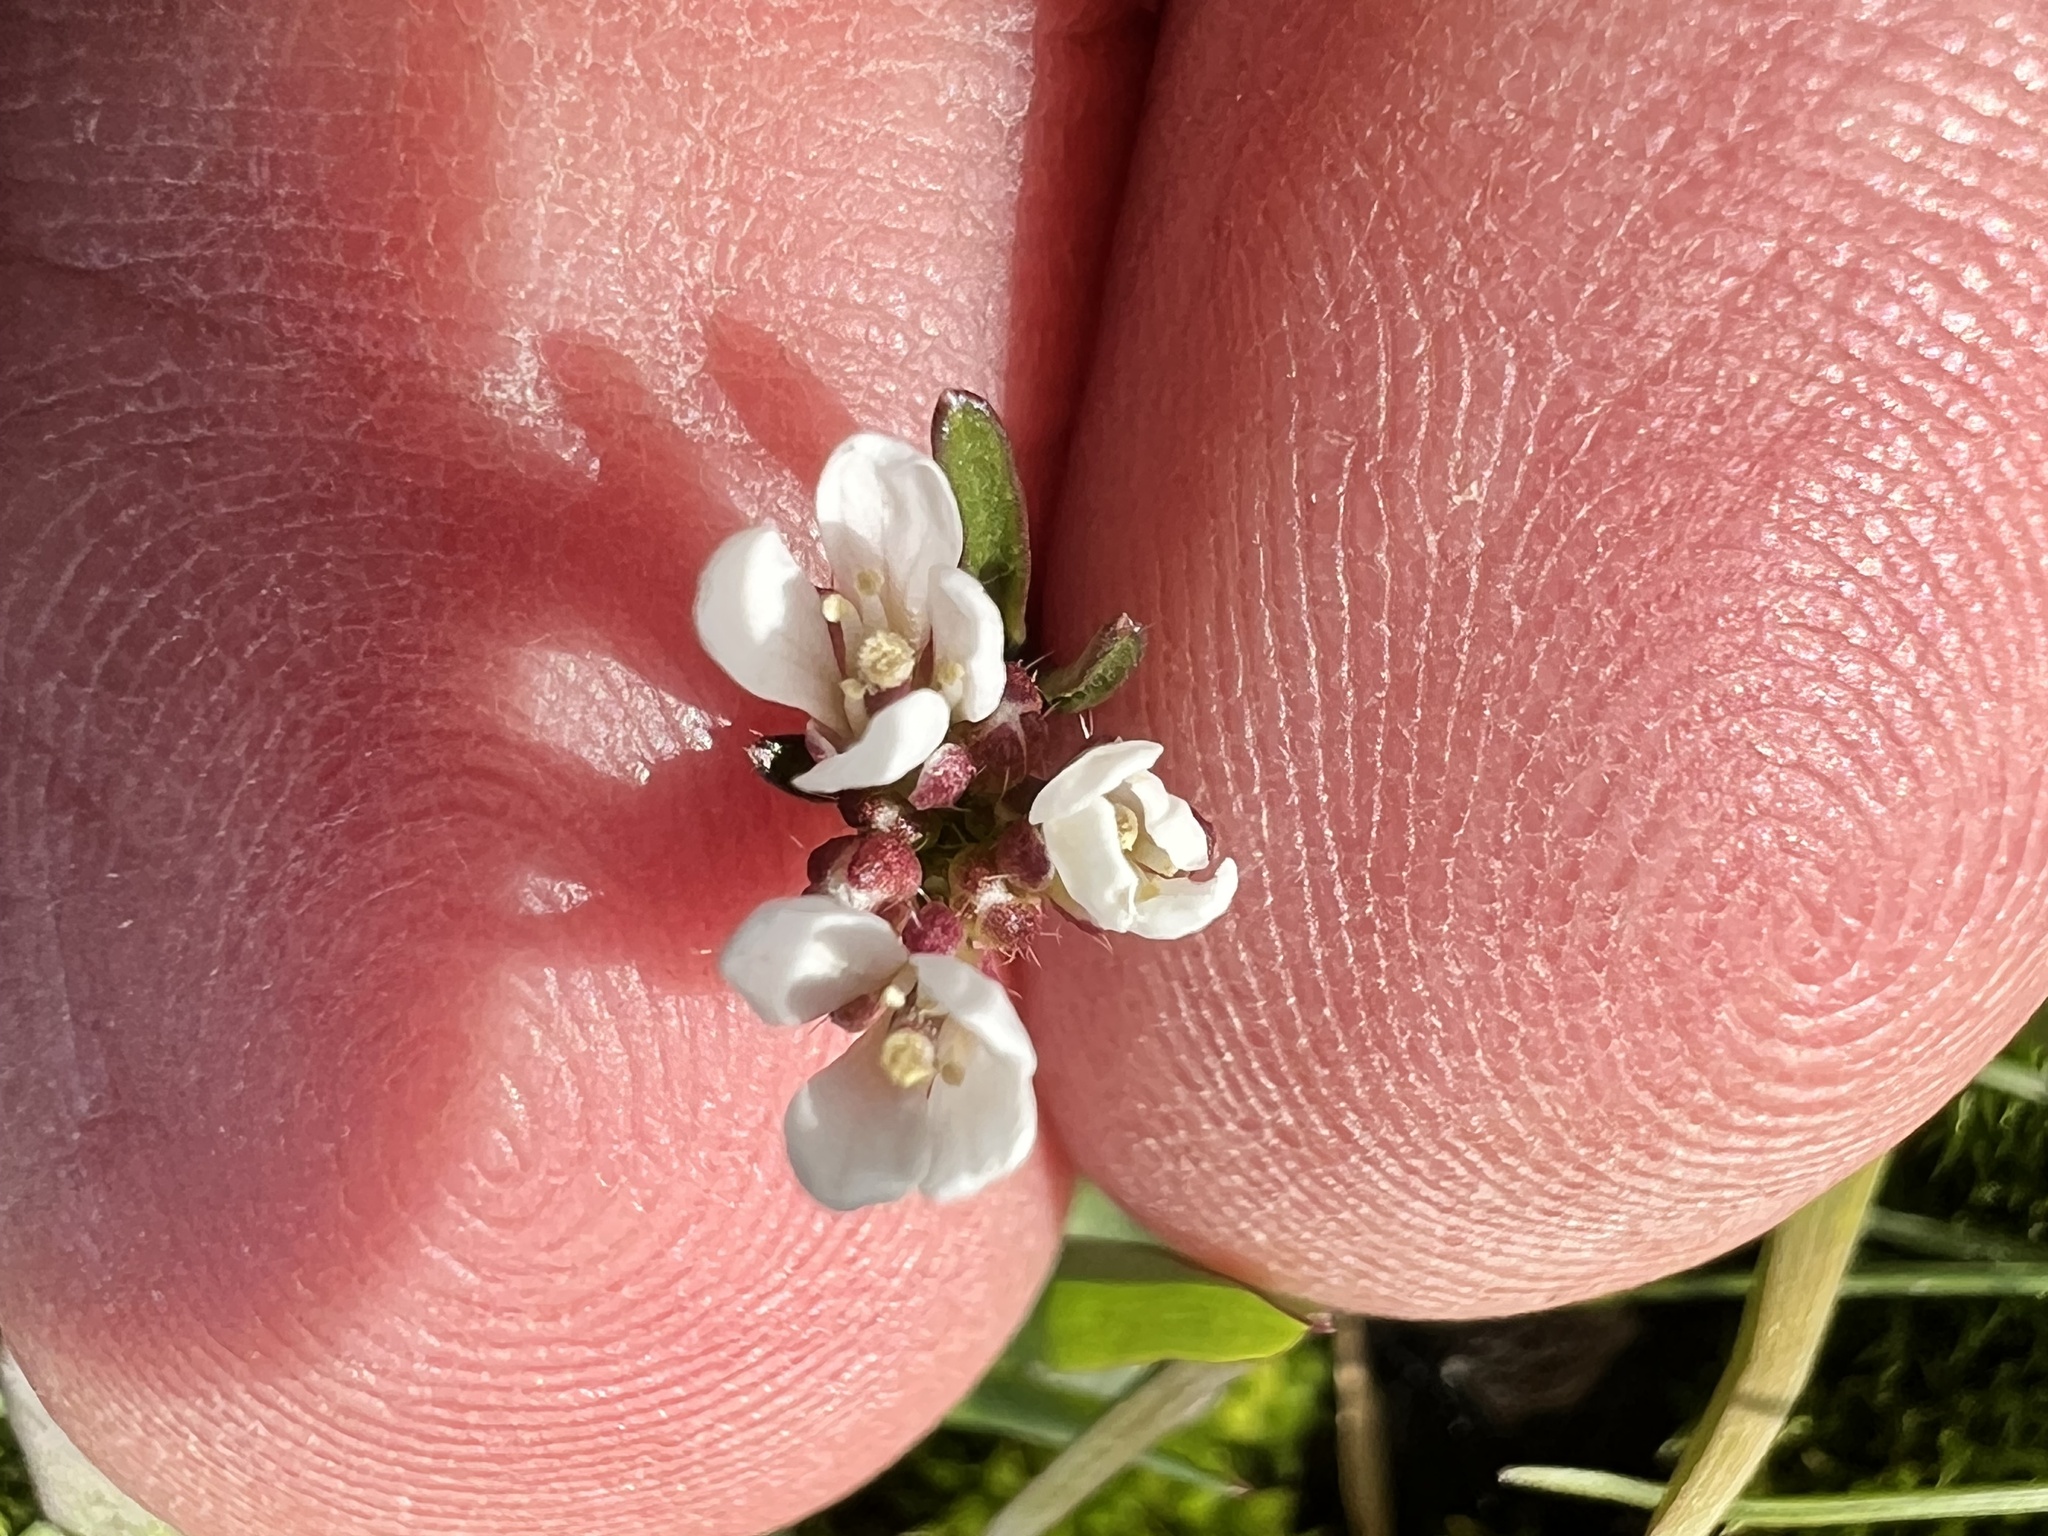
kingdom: Plantae
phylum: Tracheophyta
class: Magnoliopsida
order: Brassicales
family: Brassicaceae
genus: Cardamine
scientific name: Cardamine hirsuta
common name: Hairy bittercress
